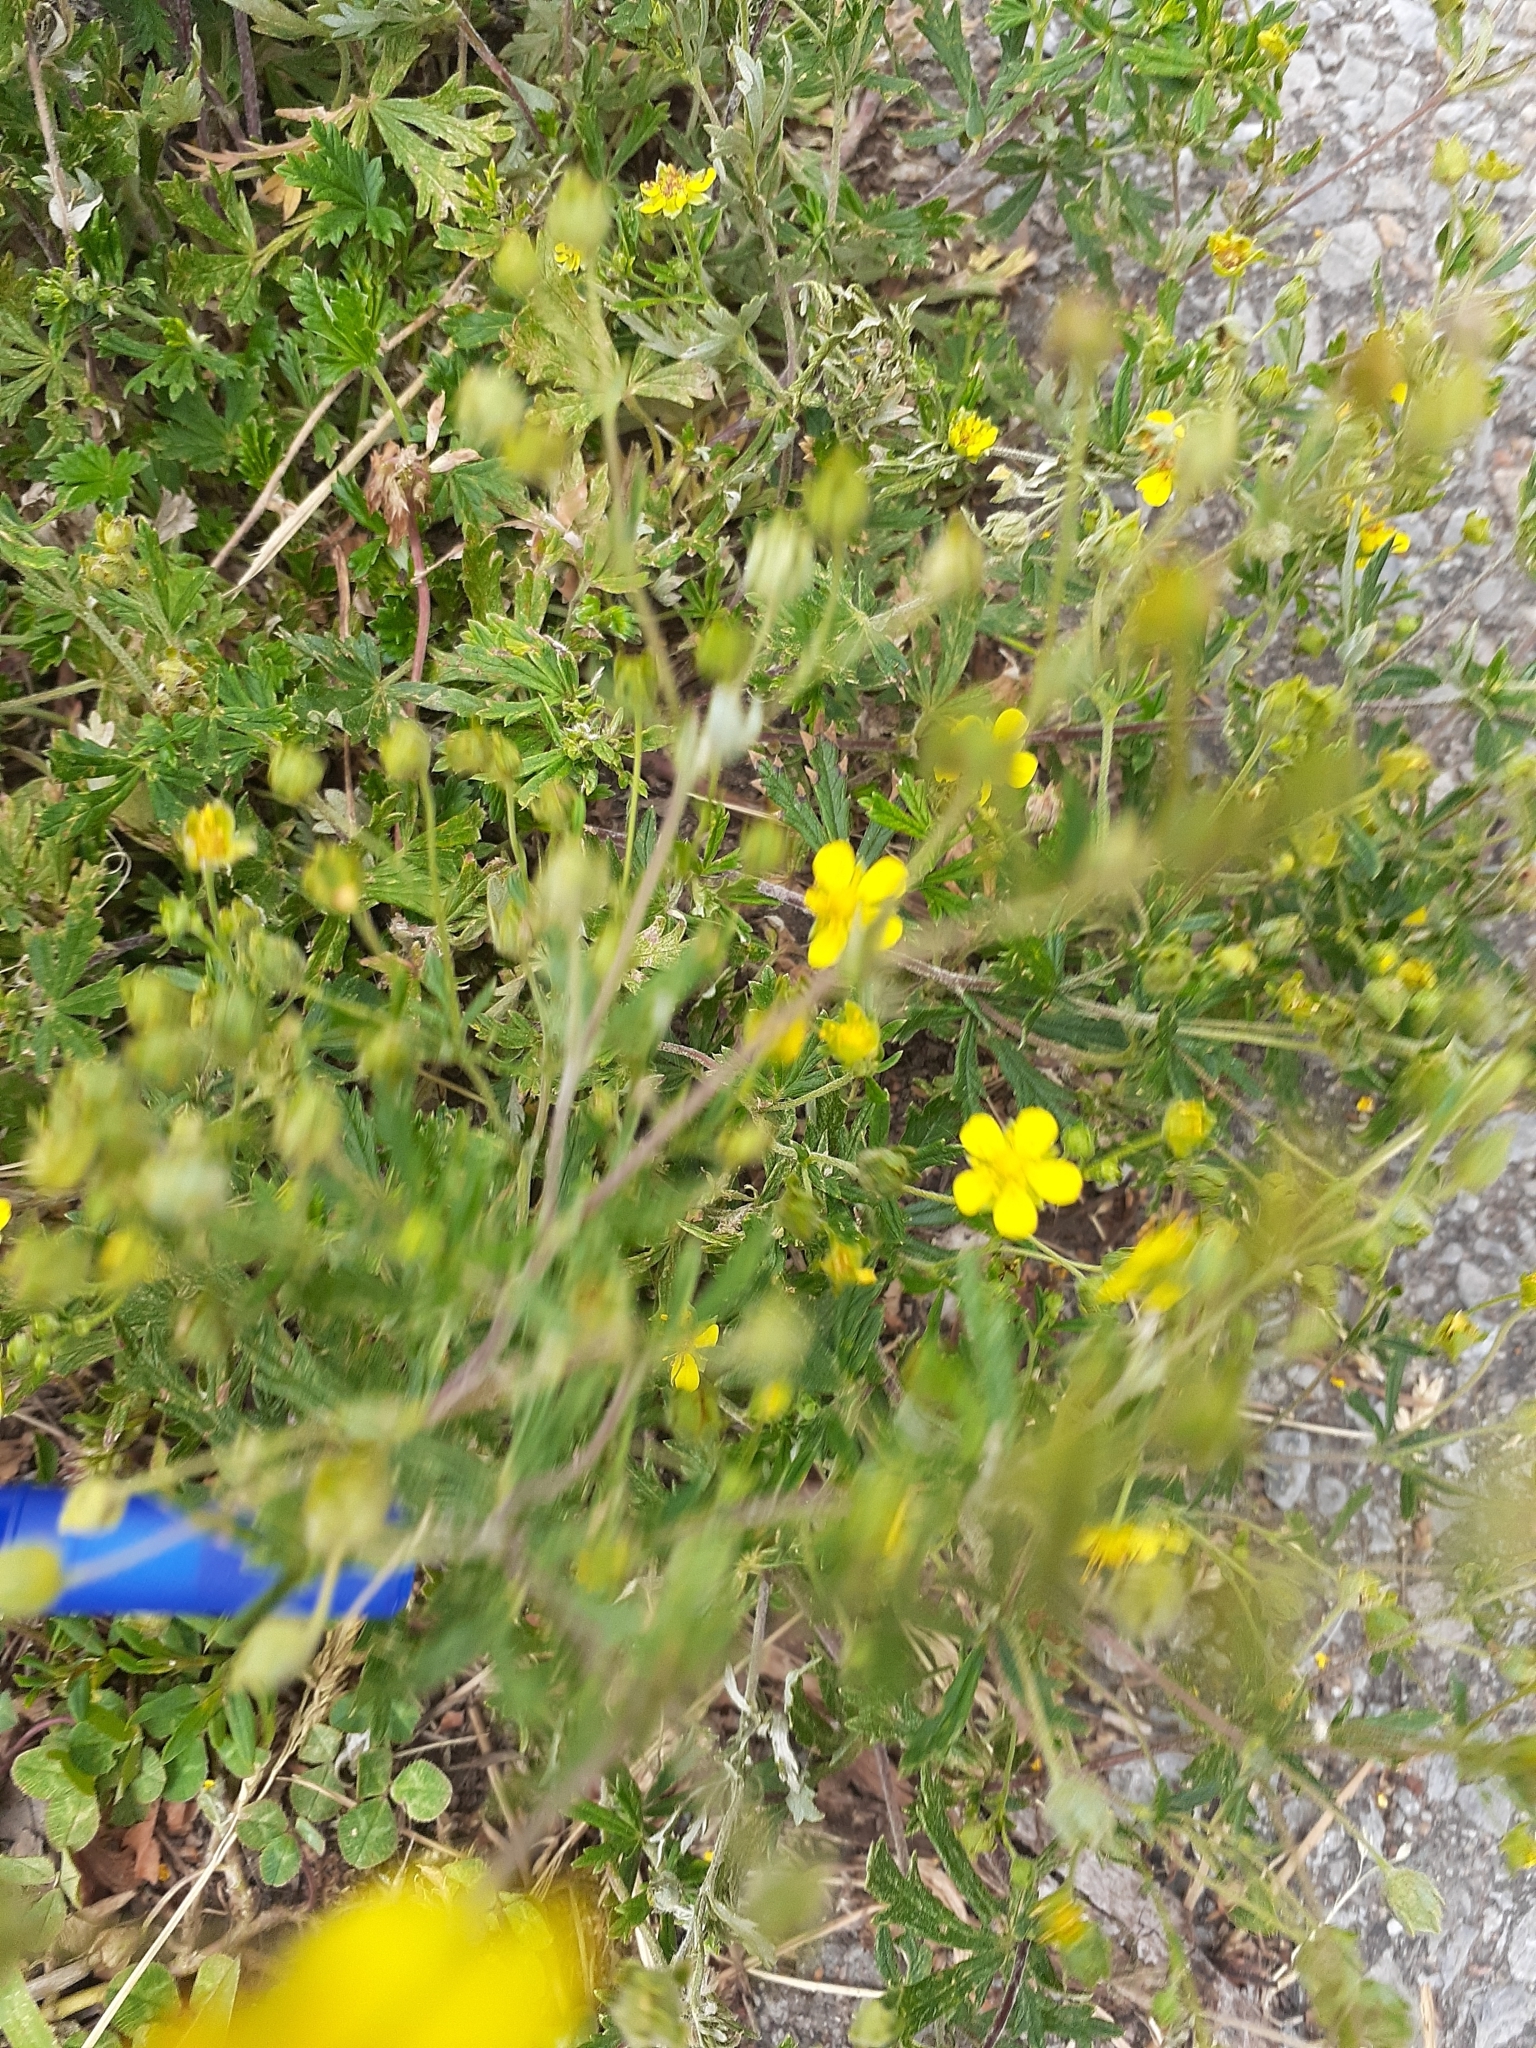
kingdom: Plantae
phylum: Tracheophyta
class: Magnoliopsida
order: Rosales
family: Rosaceae
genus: Potentilla
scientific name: Potentilla argentea
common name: Hoary cinquefoil
